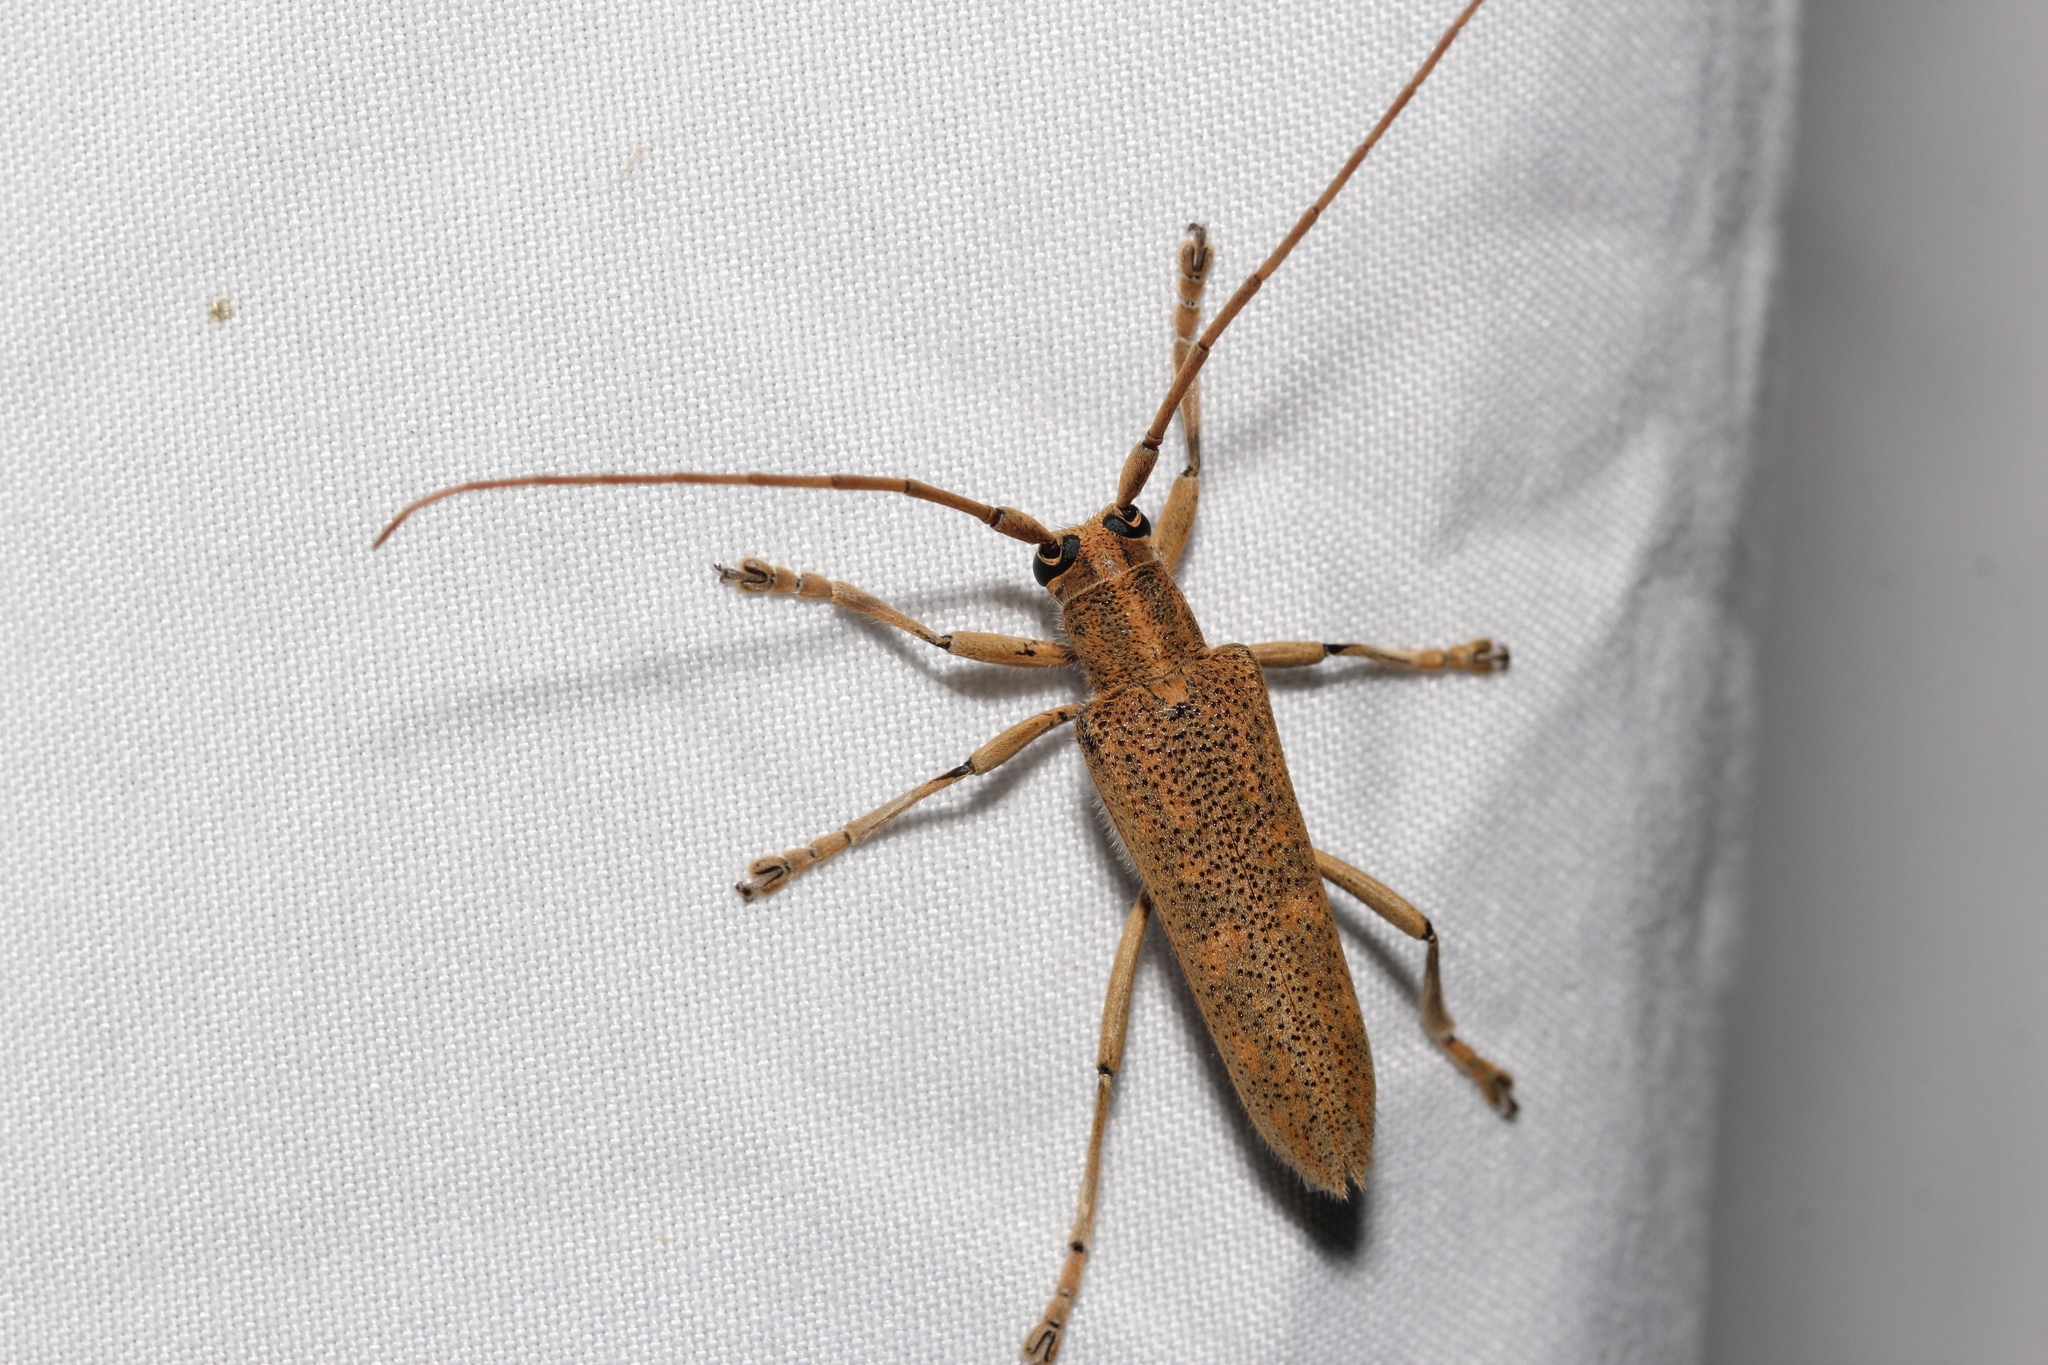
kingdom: Animalia
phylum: Arthropoda
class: Insecta
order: Coleoptera
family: Cerambycidae
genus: Saperda
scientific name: Saperda calcarata
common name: Poplar borer
